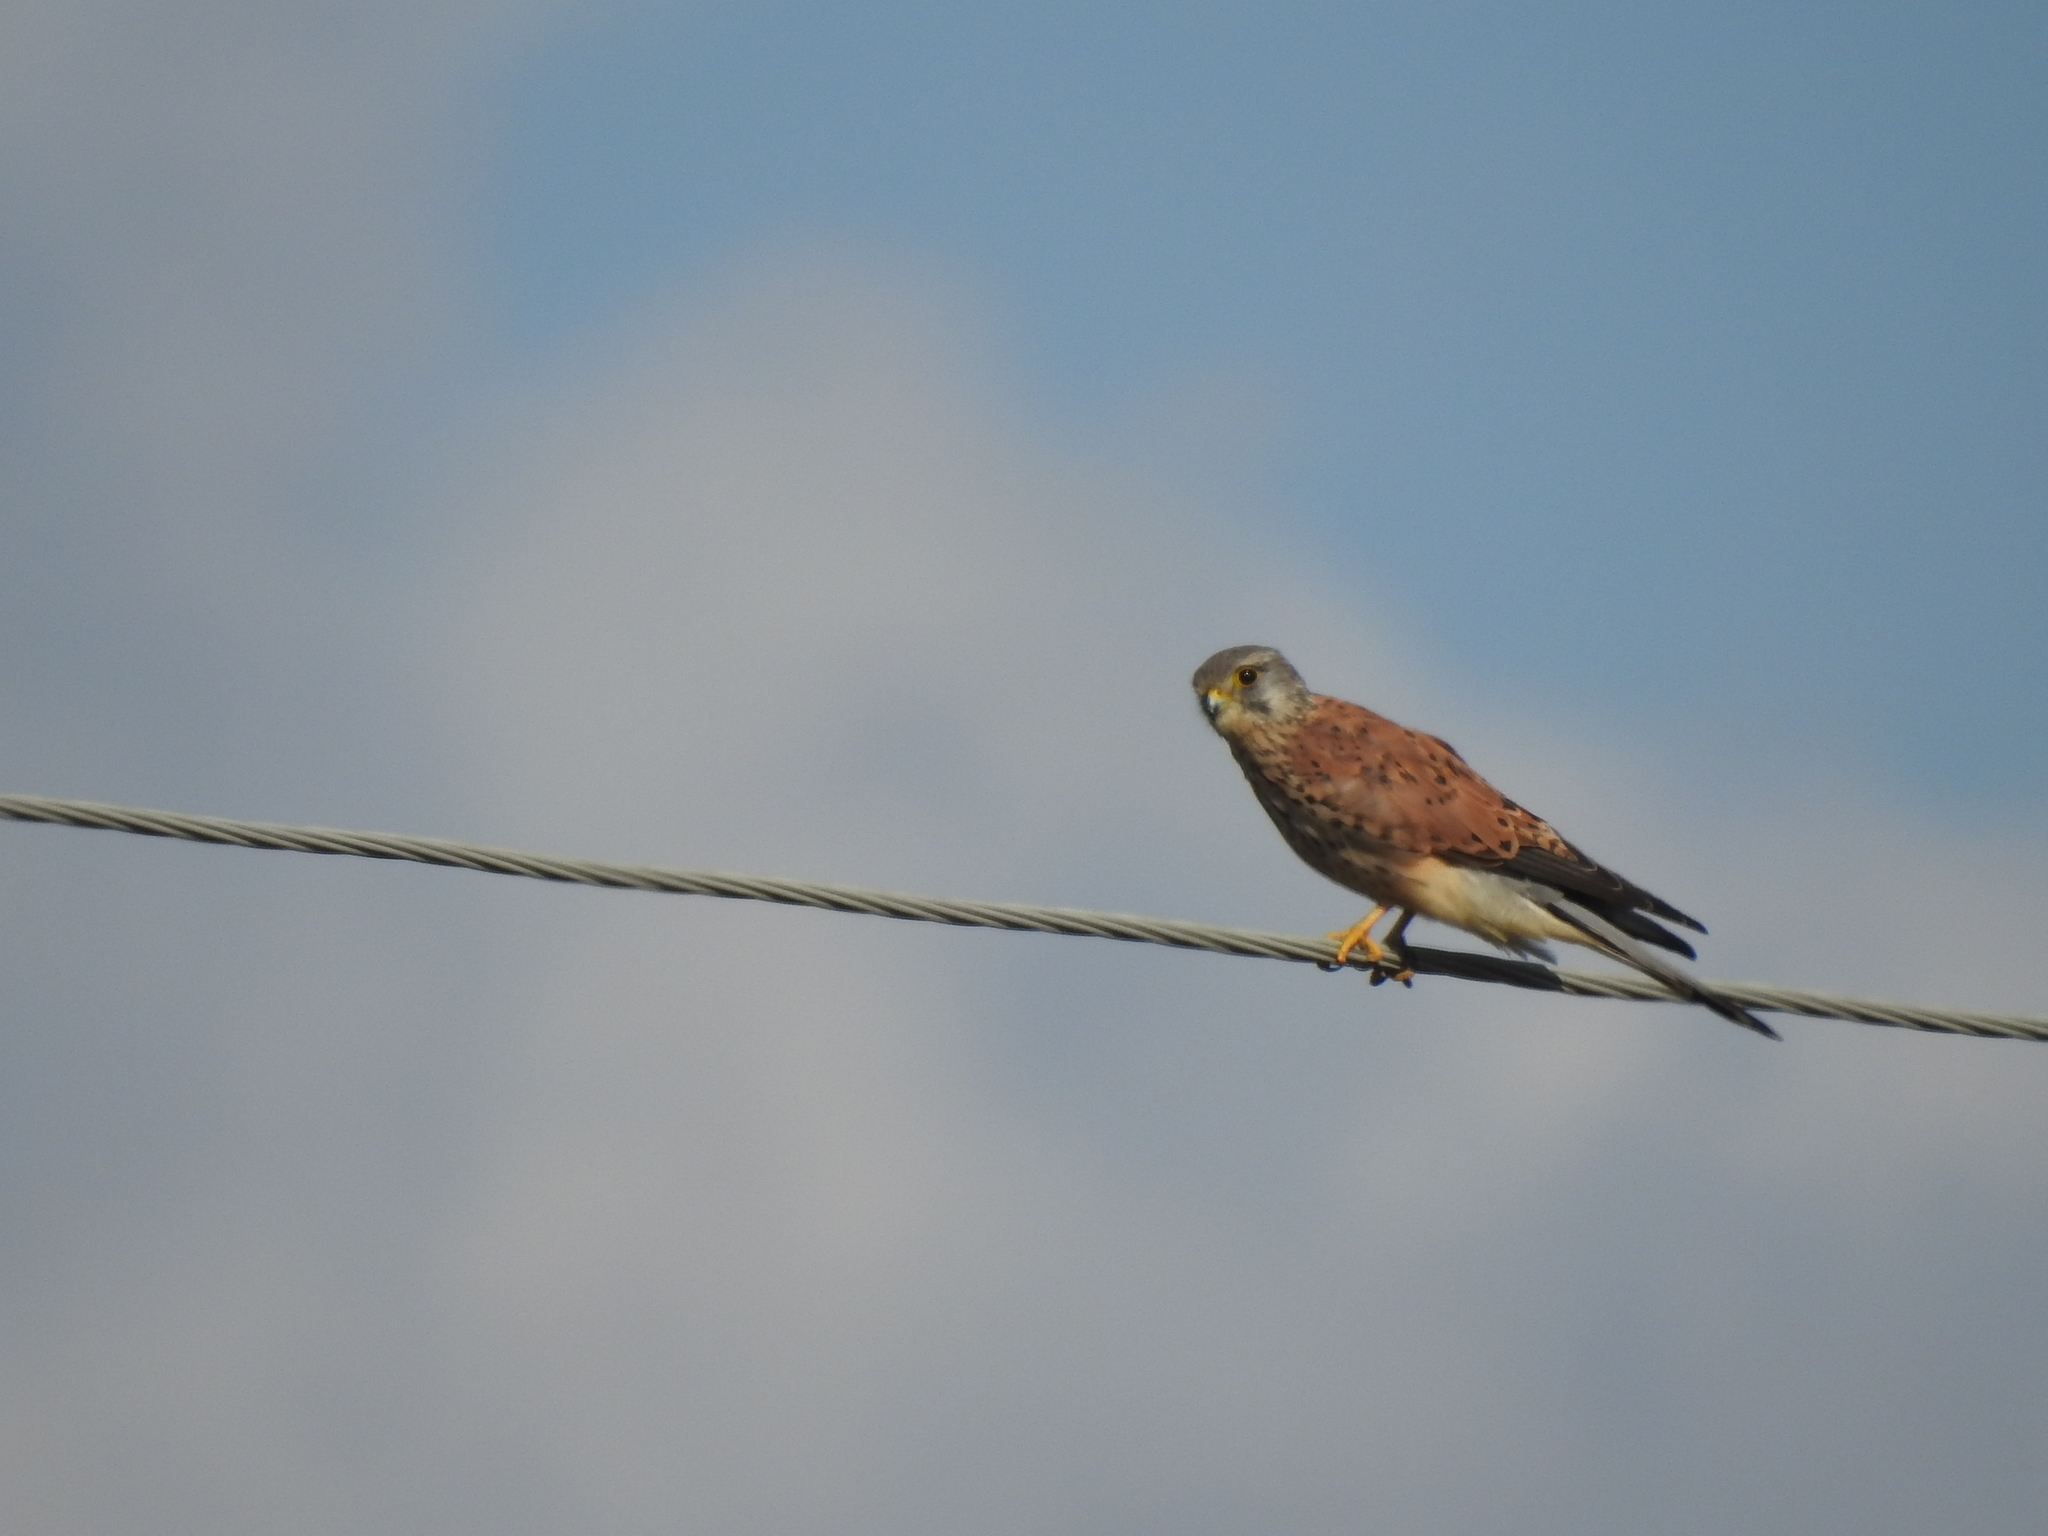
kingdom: Animalia
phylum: Chordata
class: Aves
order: Falconiformes
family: Falconidae
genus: Falco
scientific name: Falco tinnunculus
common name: Common kestrel
